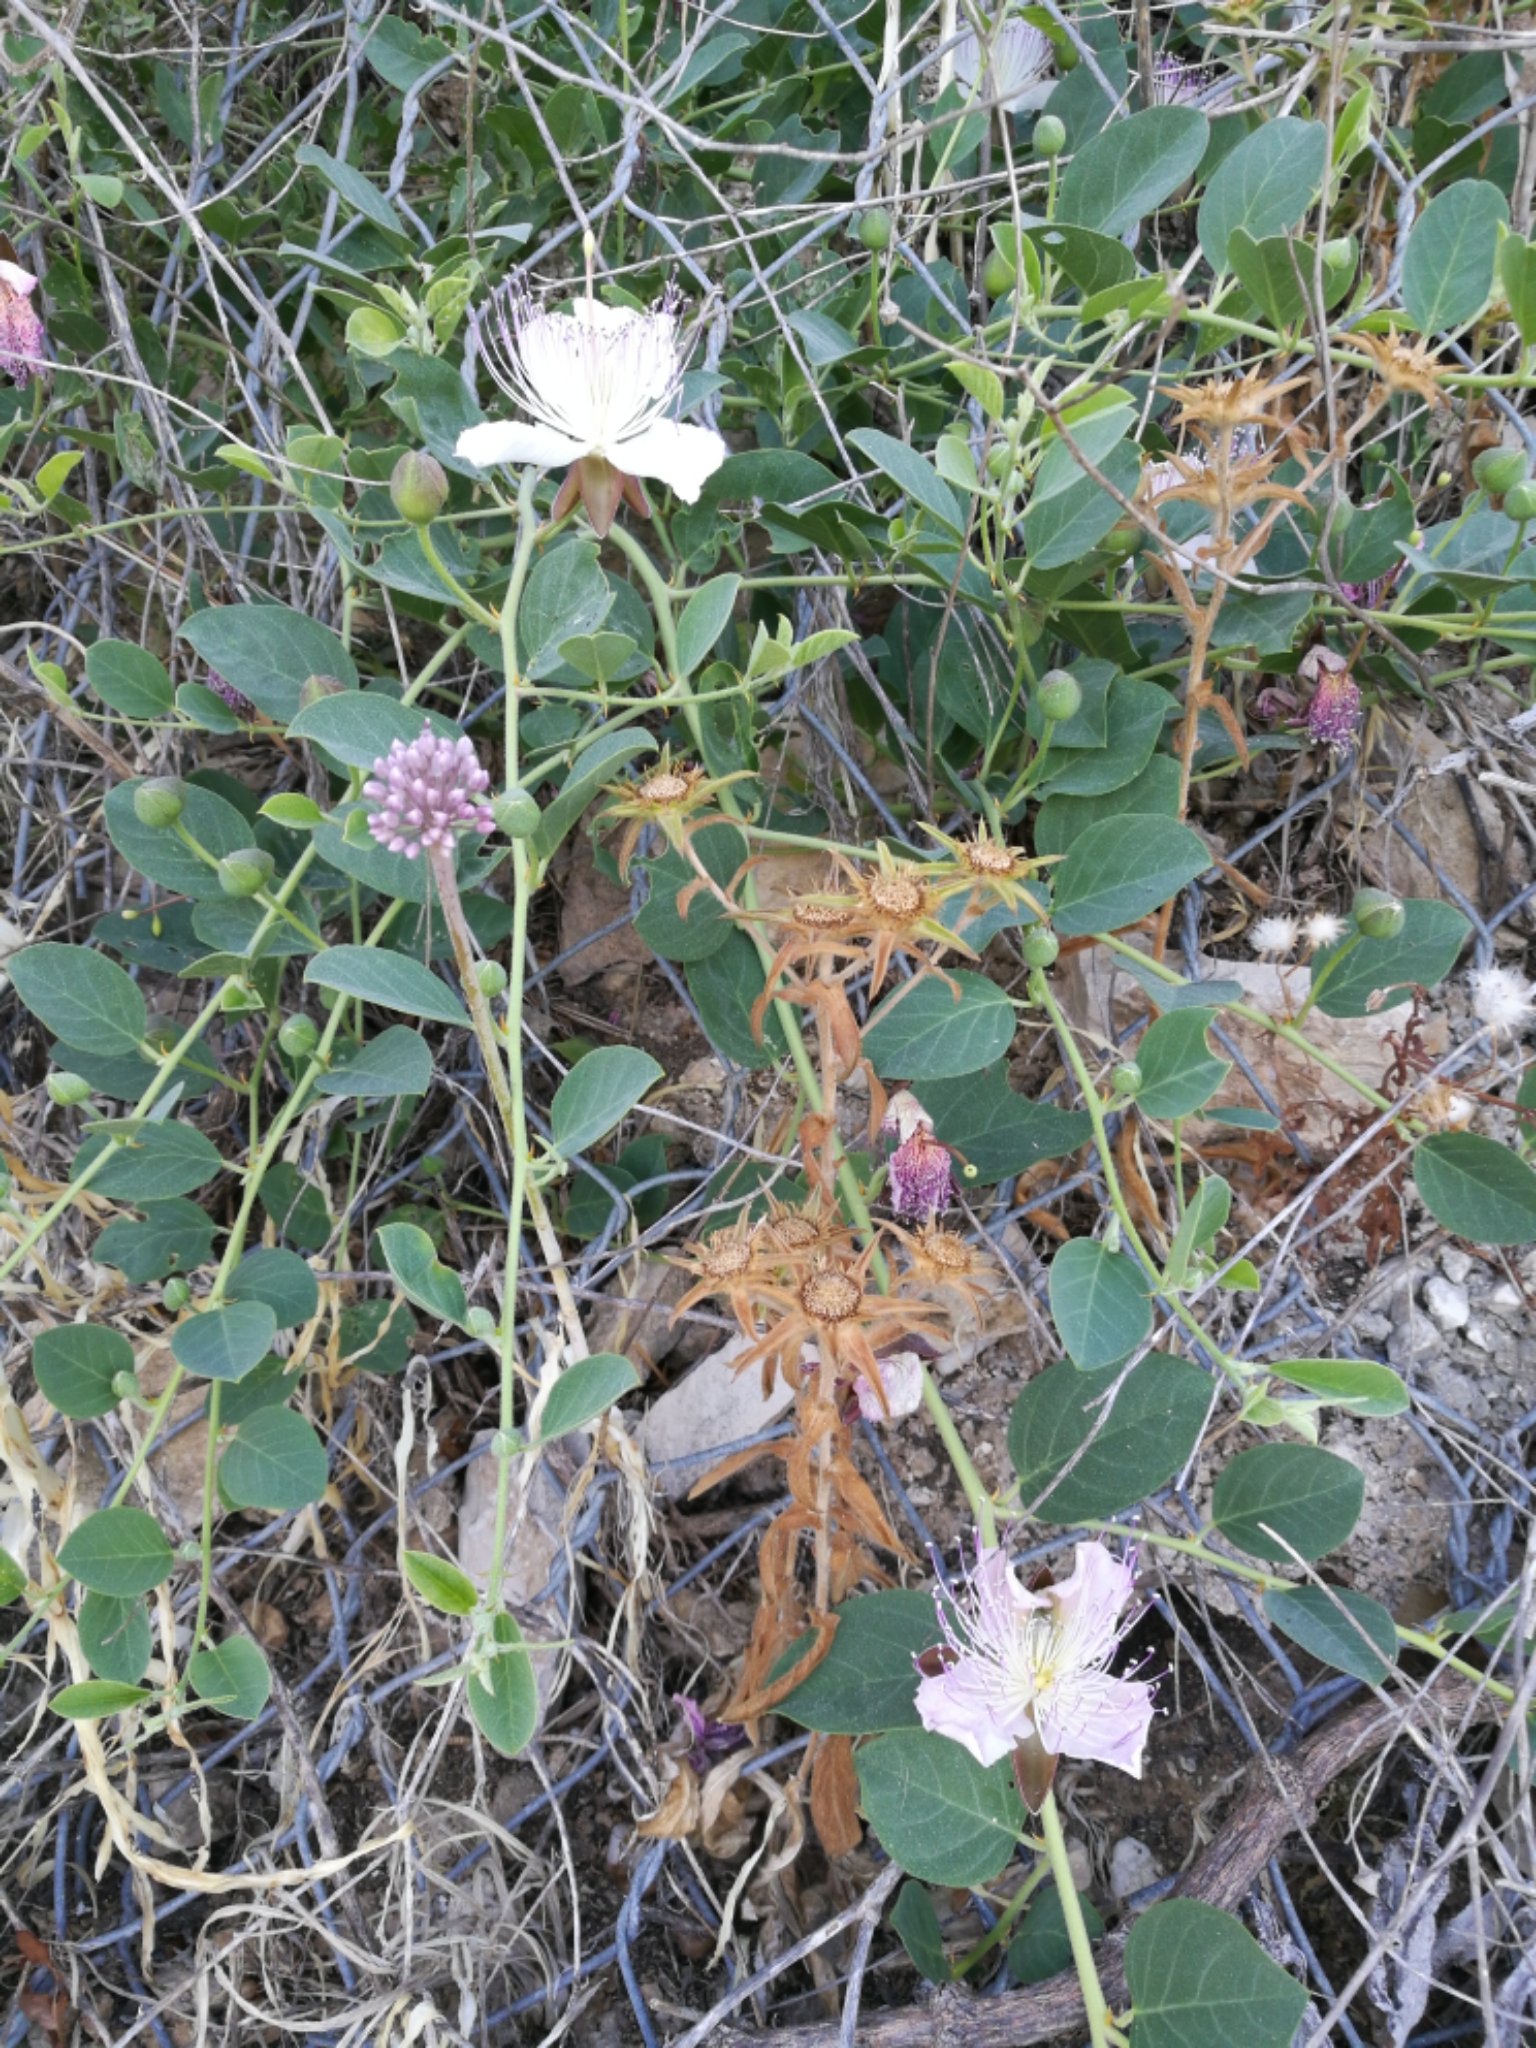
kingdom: Plantae
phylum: Tracheophyta
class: Magnoliopsida
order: Brassicales
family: Capparaceae
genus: Capparis
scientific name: Capparis spinosa
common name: Caper
